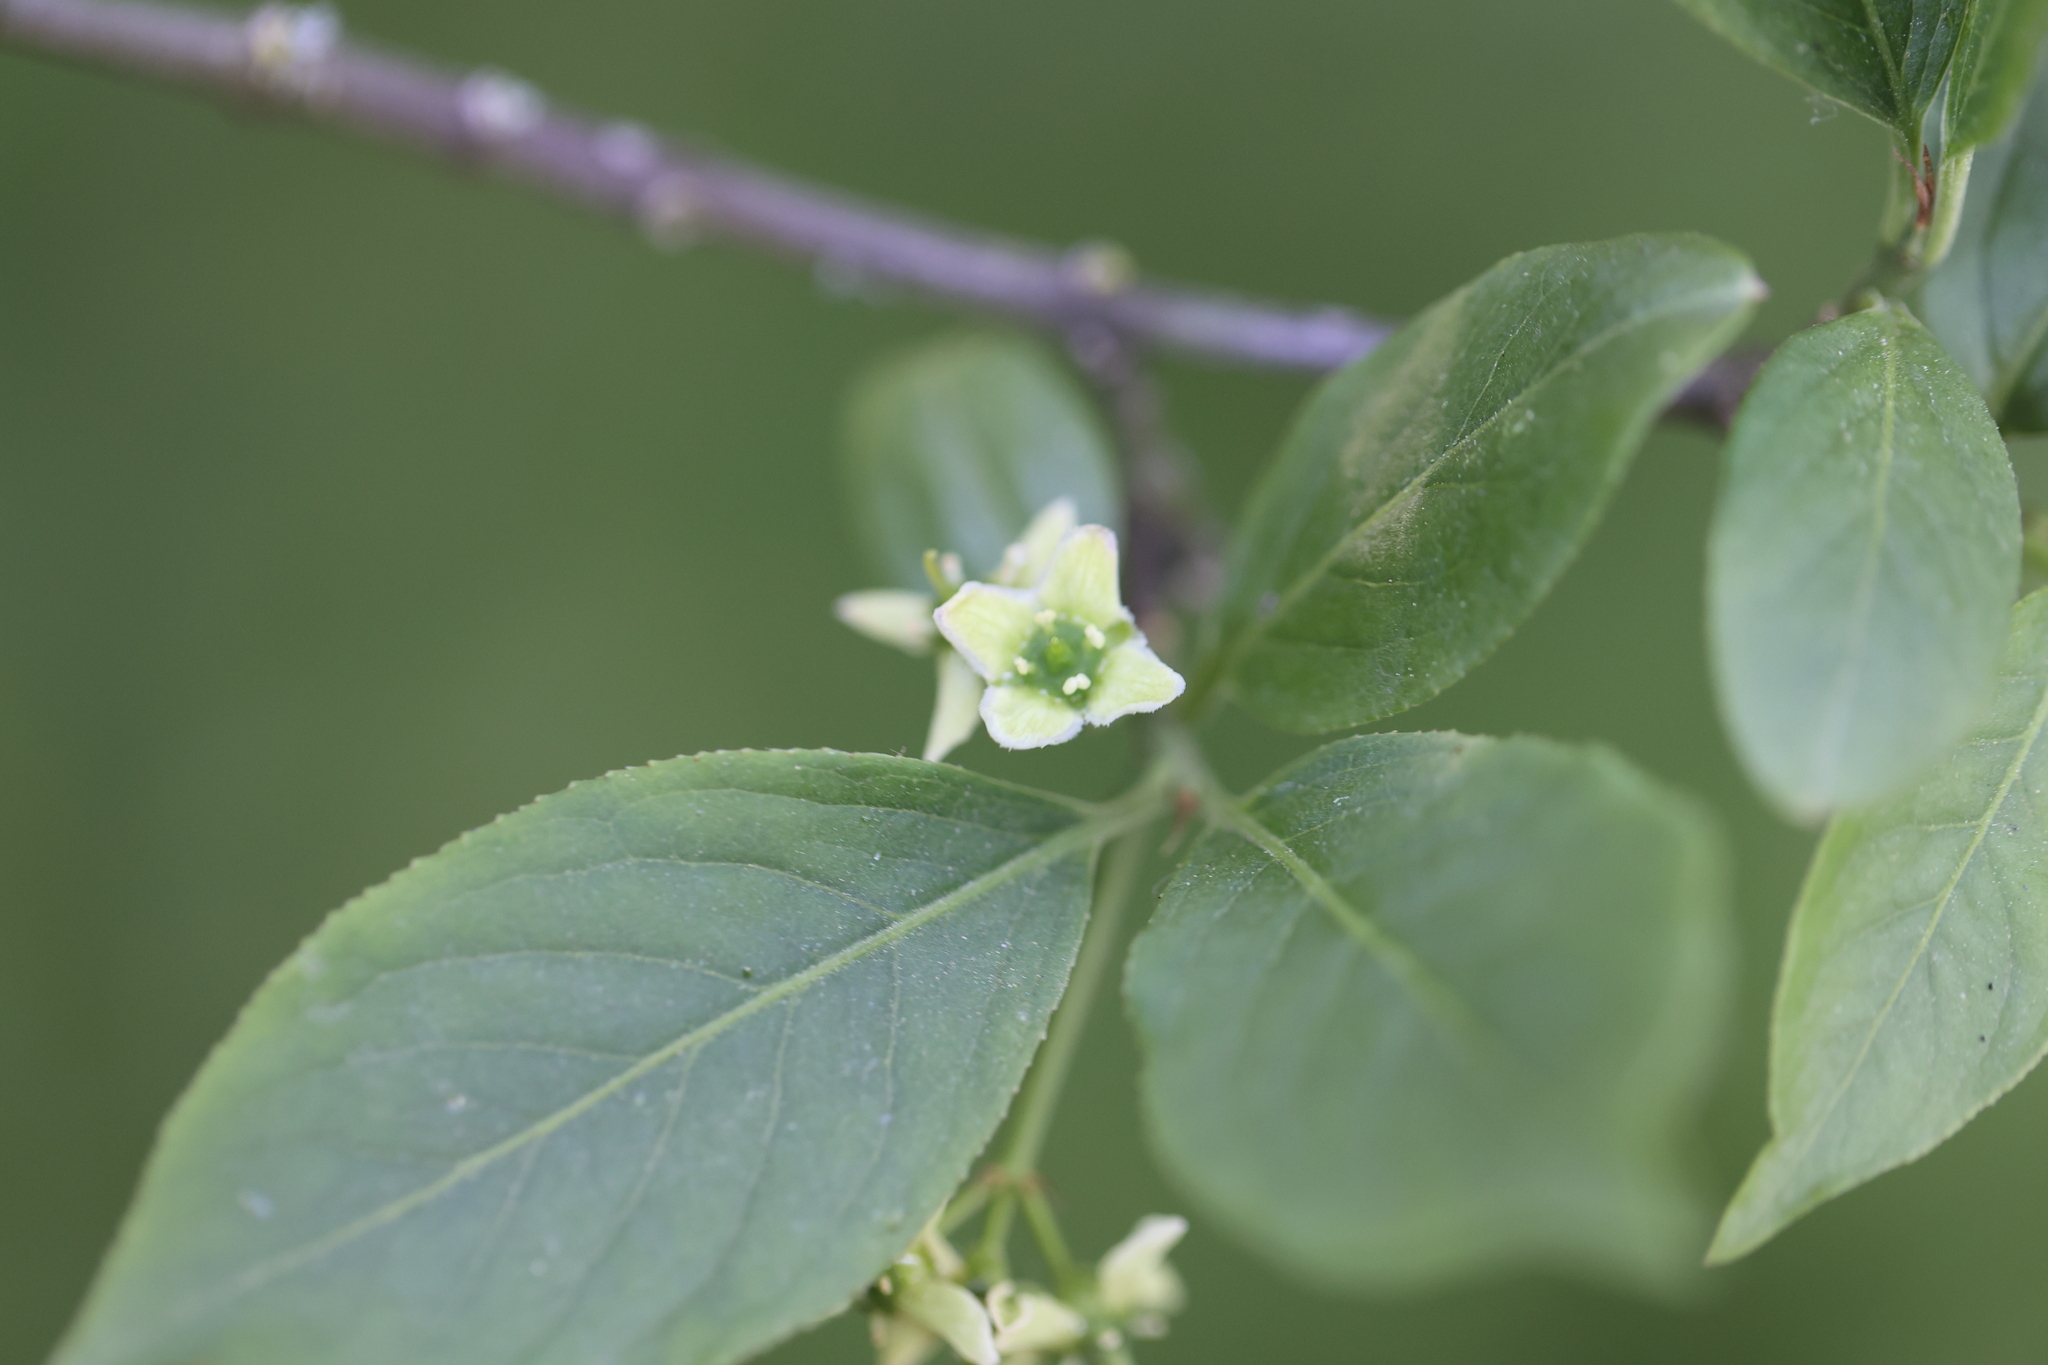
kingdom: Plantae
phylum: Tracheophyta
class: Magnoliopsida
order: Celastrales
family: Celastraceae
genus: Euonymus
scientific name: Euonymus europaeus
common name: Spindle
